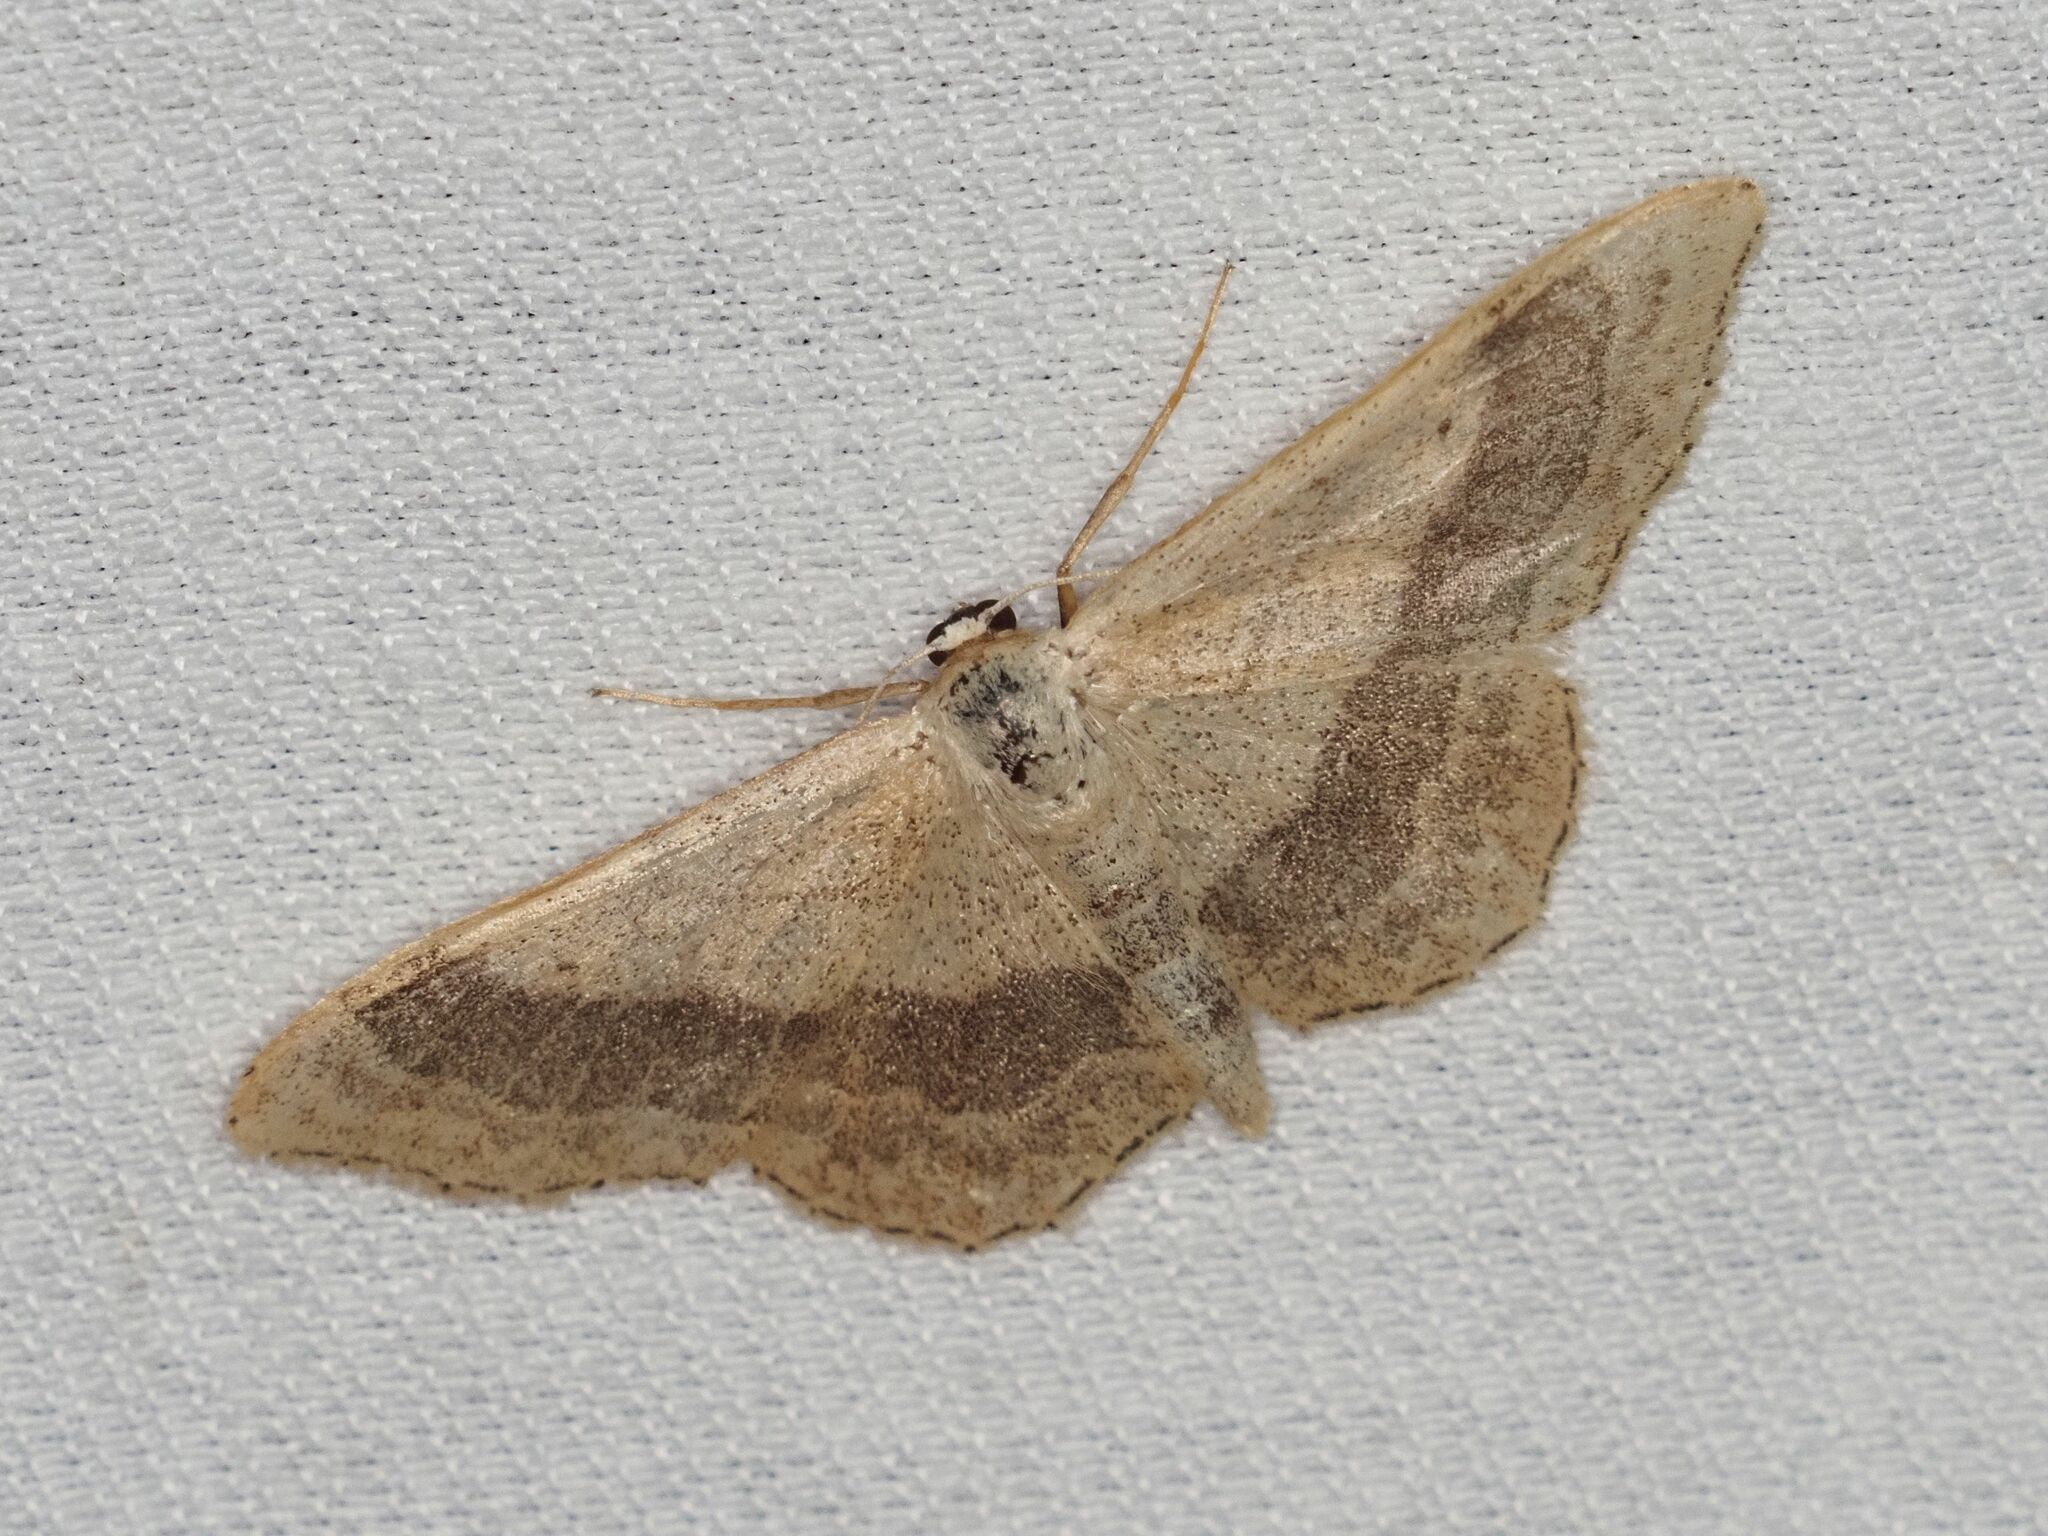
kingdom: Animalia
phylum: Arthropoda
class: Insecta
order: Lepidoptera
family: Geometridae
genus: Idaea
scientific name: Idaea aversata
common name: Riband wave
